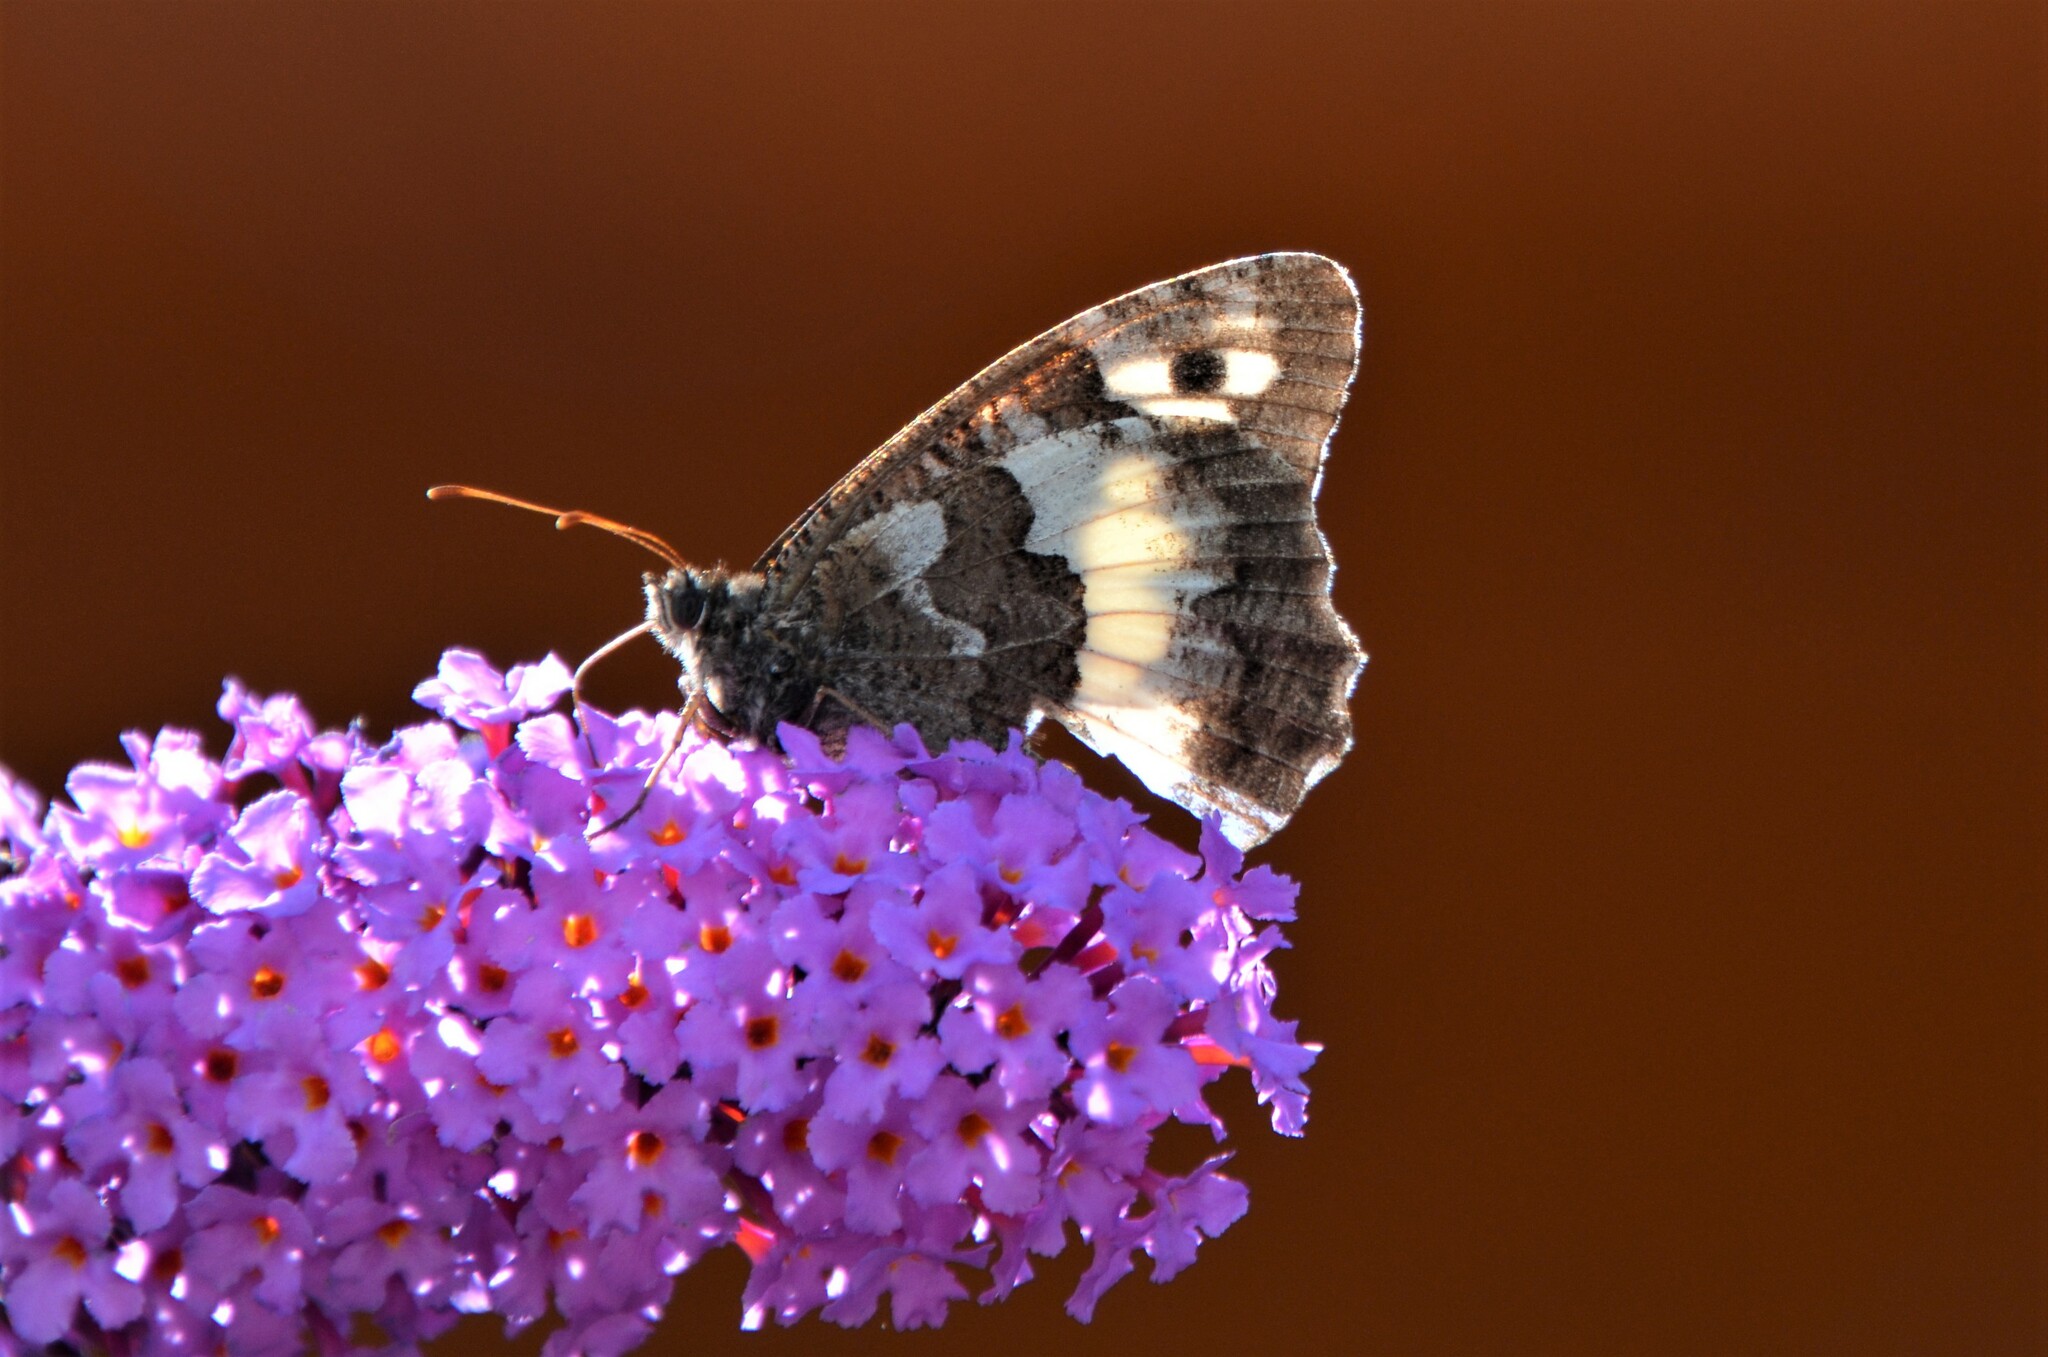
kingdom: Animalia
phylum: Arthropoda
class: Insecta
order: Lepidoptera
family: Lycaenidae
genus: Loweia
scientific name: Loweia tityrus
